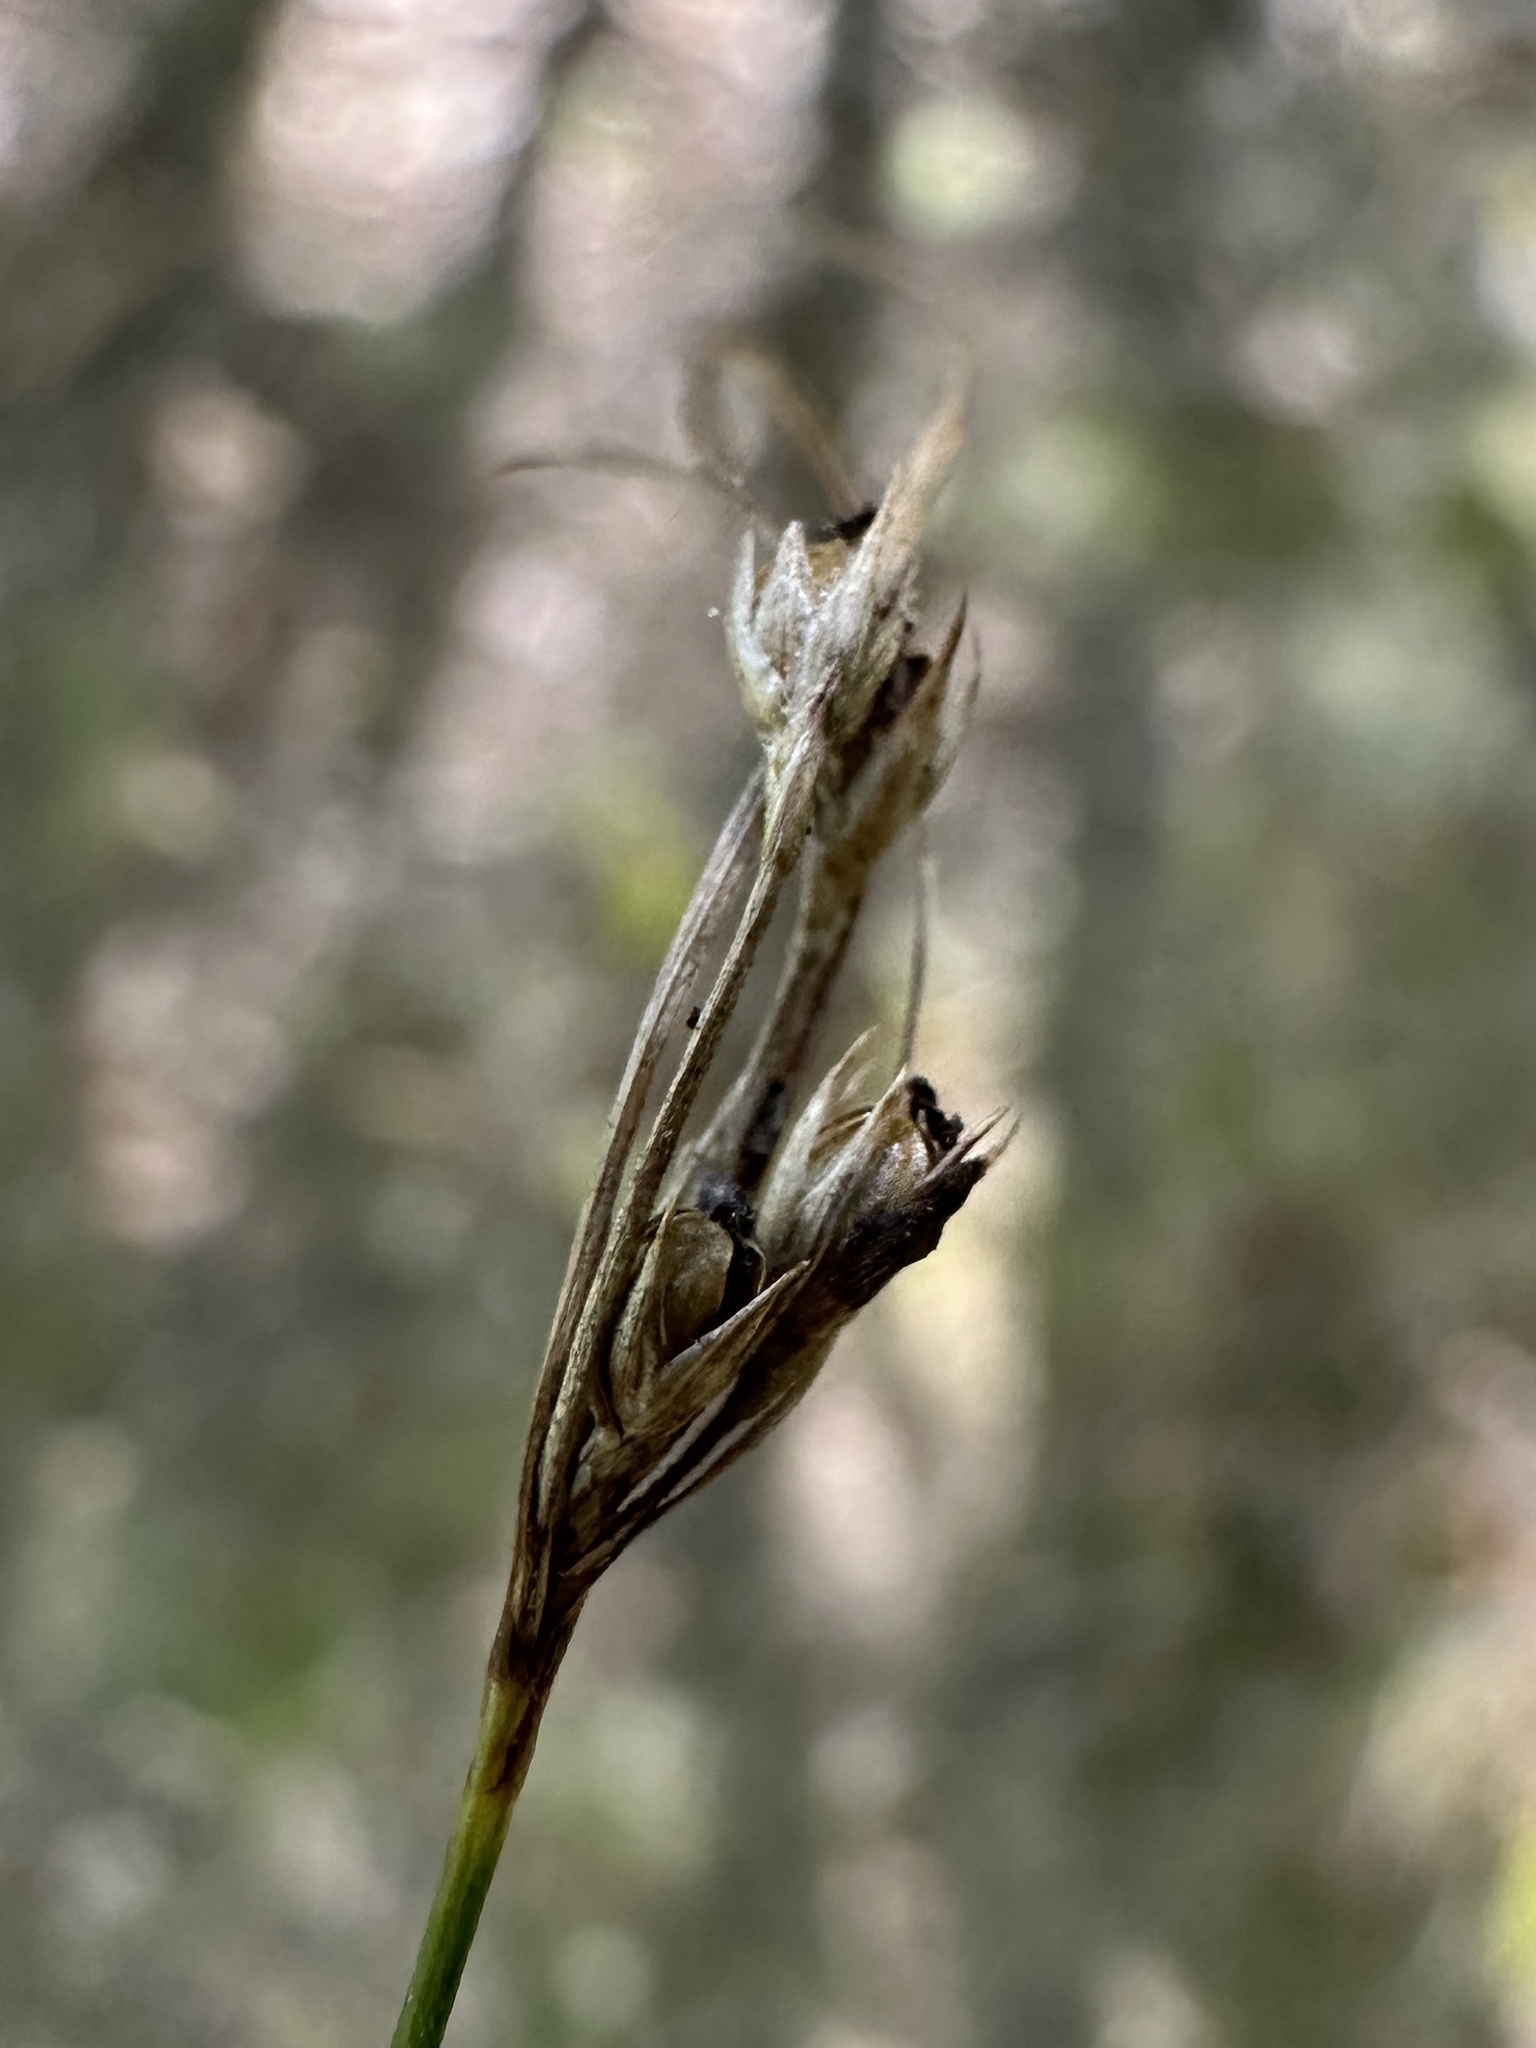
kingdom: Plantae
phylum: Tracheophyta
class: Liliopsida
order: Poales
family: Juncaceae
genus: Juncus
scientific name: Juncus tenuis
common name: Slender rush
